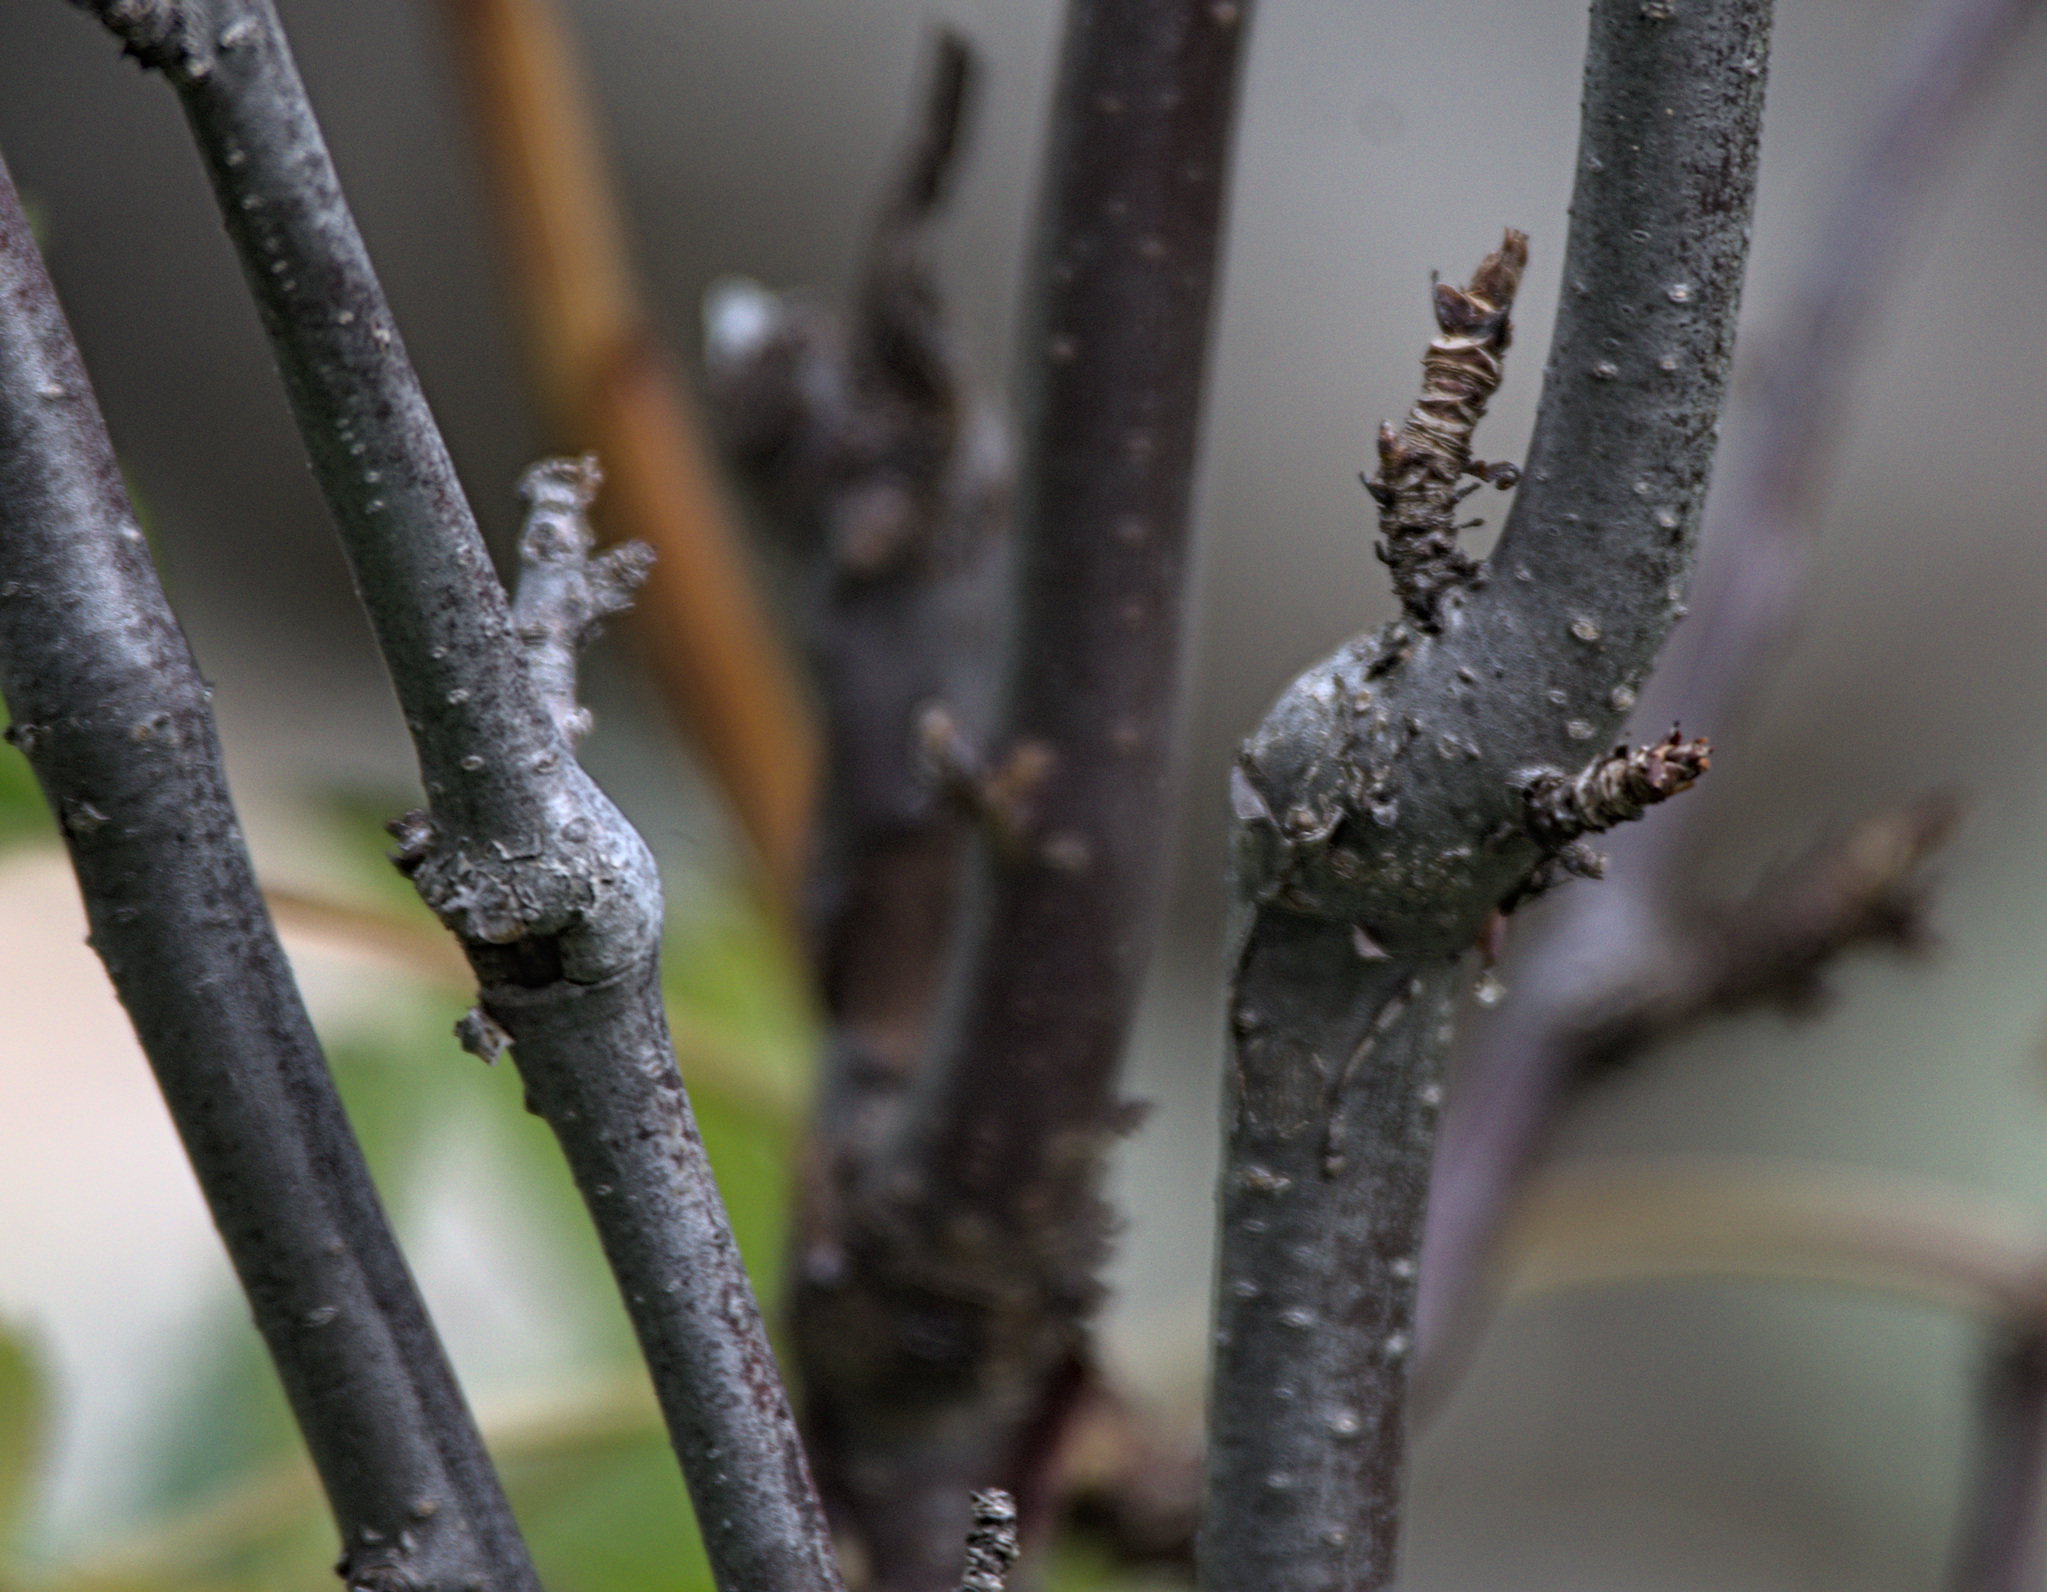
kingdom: Plantae
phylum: Tracheophyta
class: Magnoliopsida
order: Saxifragales
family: Grossulariaceae
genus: Ribes
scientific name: Ribes petraeum
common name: Rock currant
